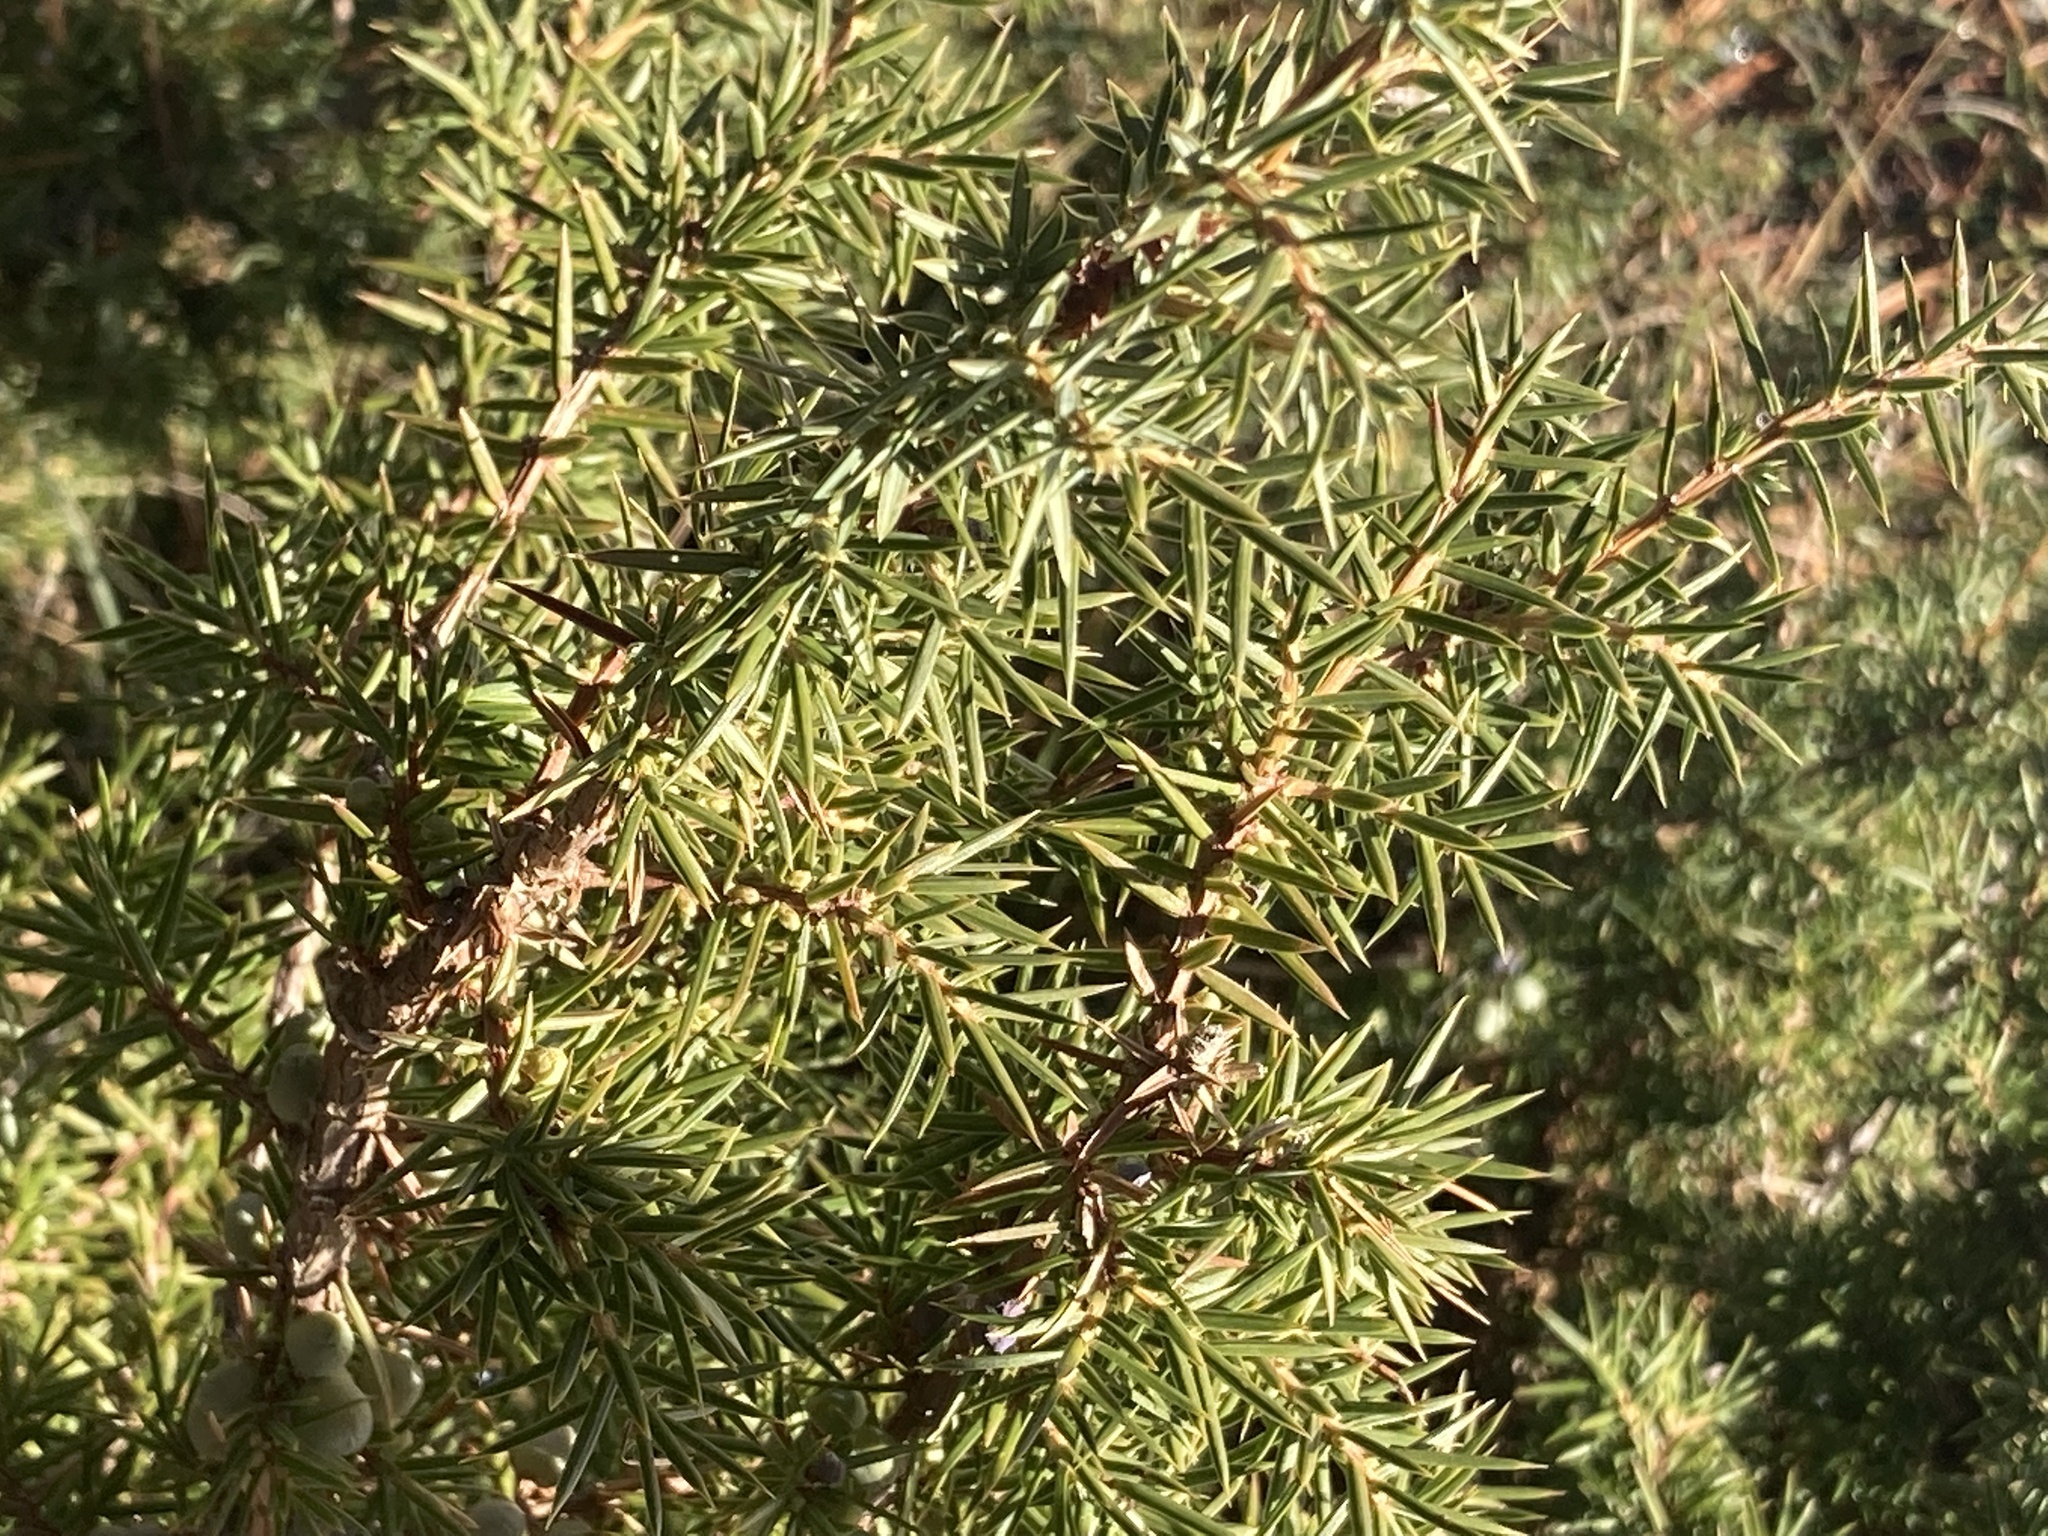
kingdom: Plantae
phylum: Tracheophyta
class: Pinopsida
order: Pinales
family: Cupressaceae
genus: Juniperus
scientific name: Juniperus communis
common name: Common juniper
